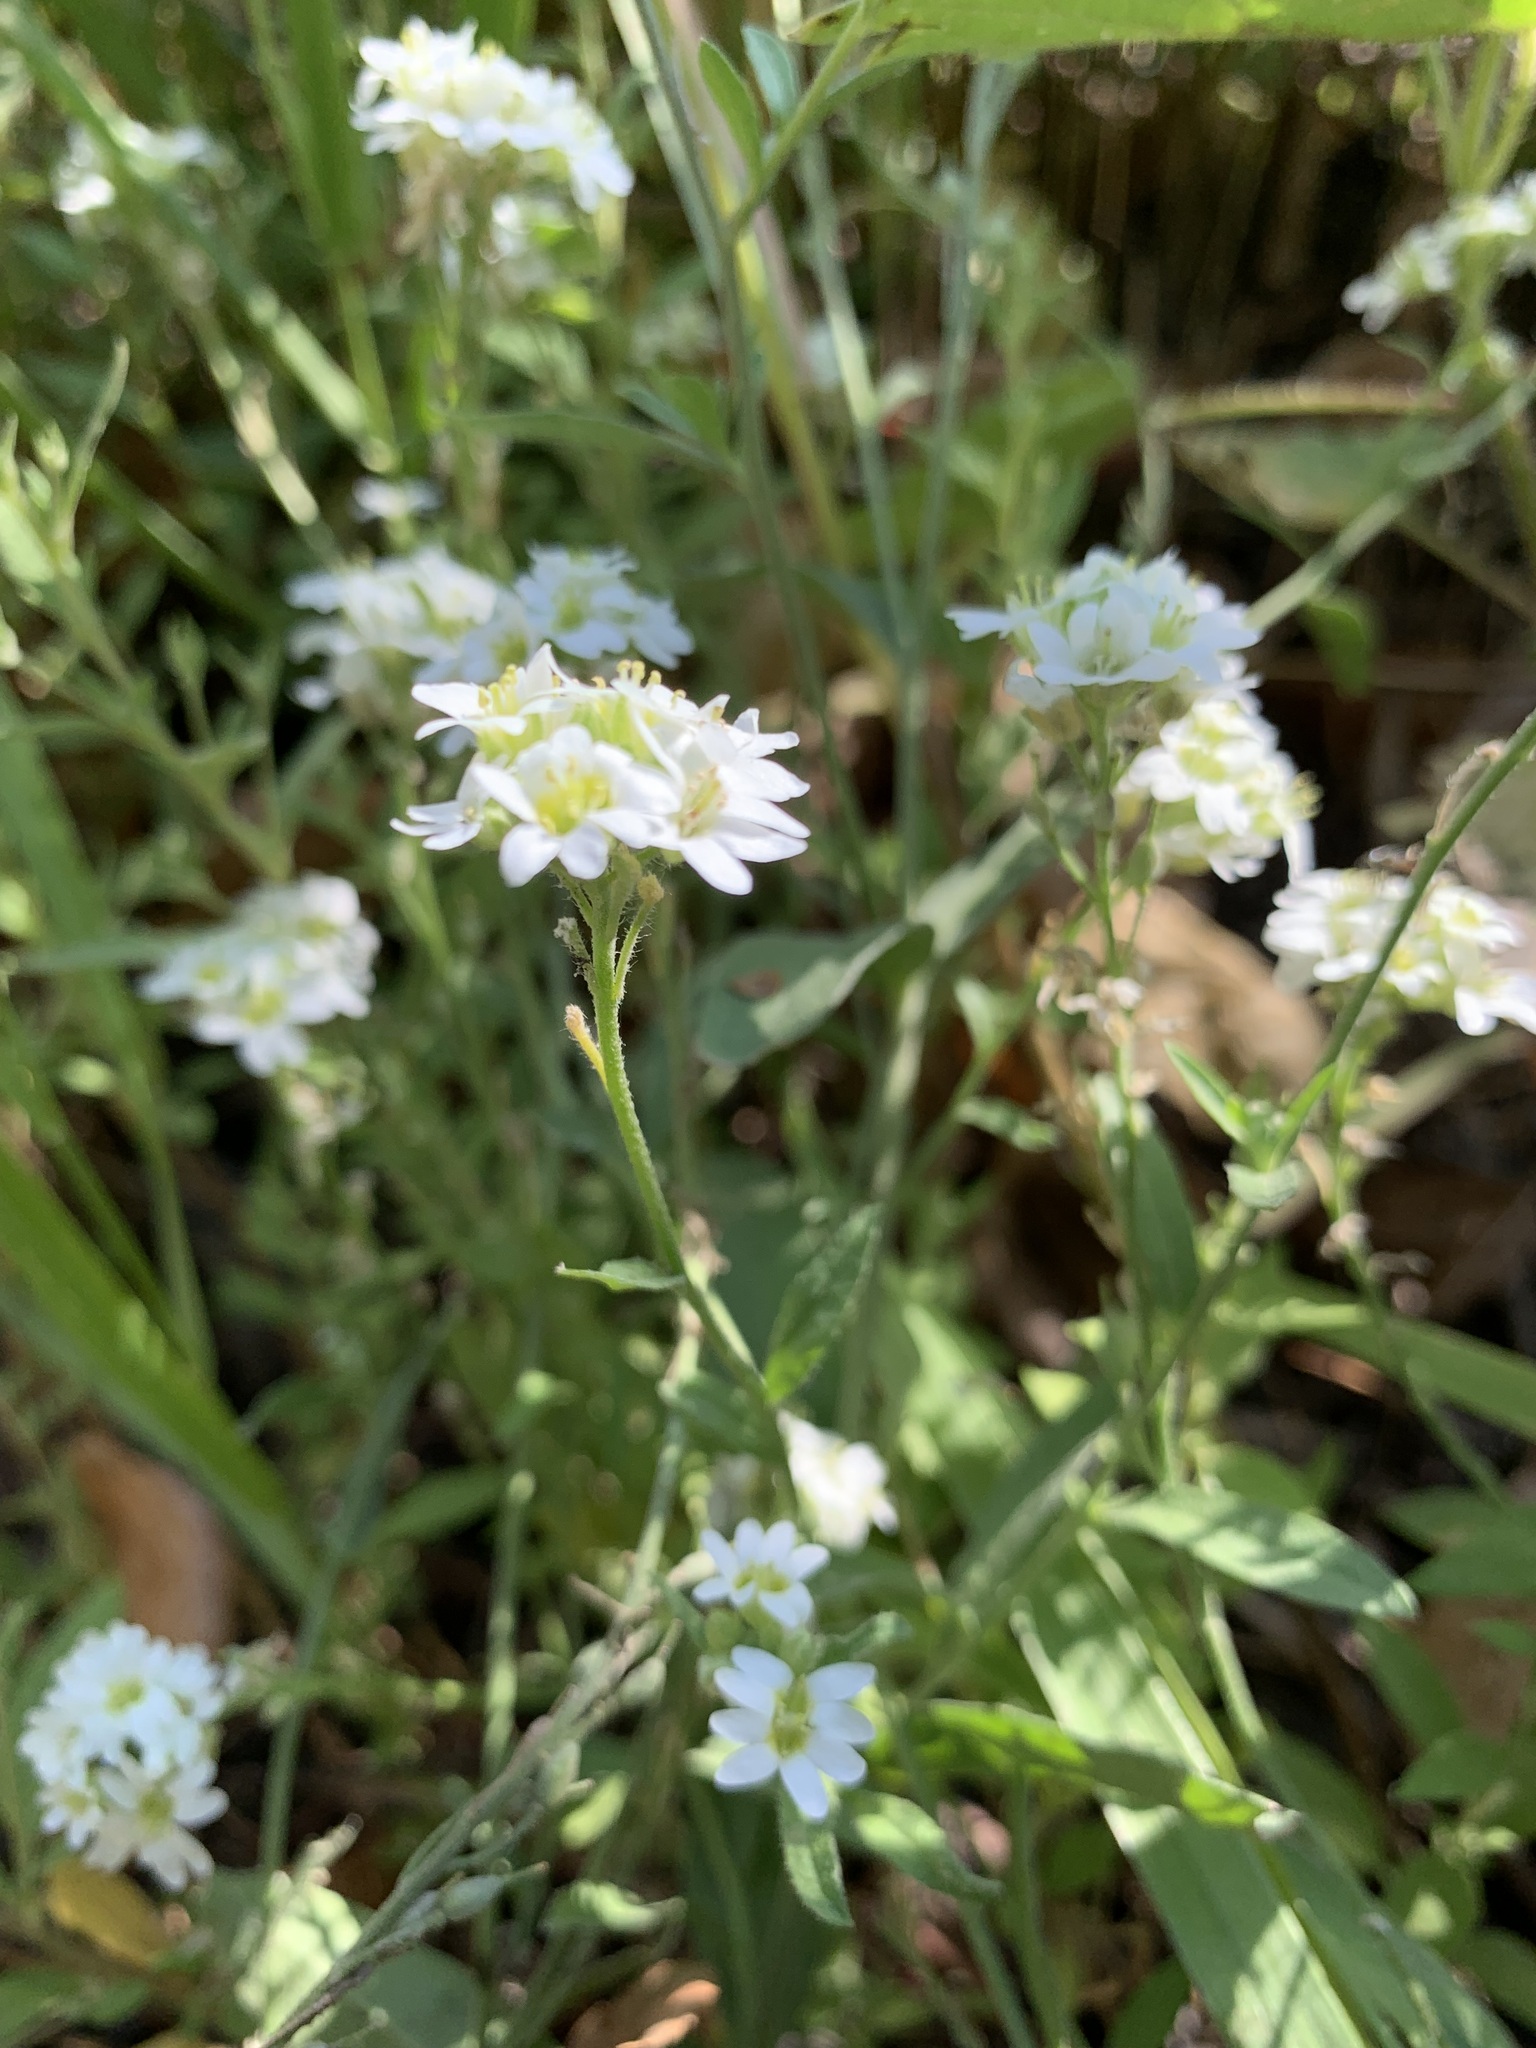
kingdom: Plantae
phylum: Tracheophyta
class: Magnoliopsida
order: Brassicales
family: Brassicaceae
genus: Berteroa
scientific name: Berteroa incana
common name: Hoary alison
